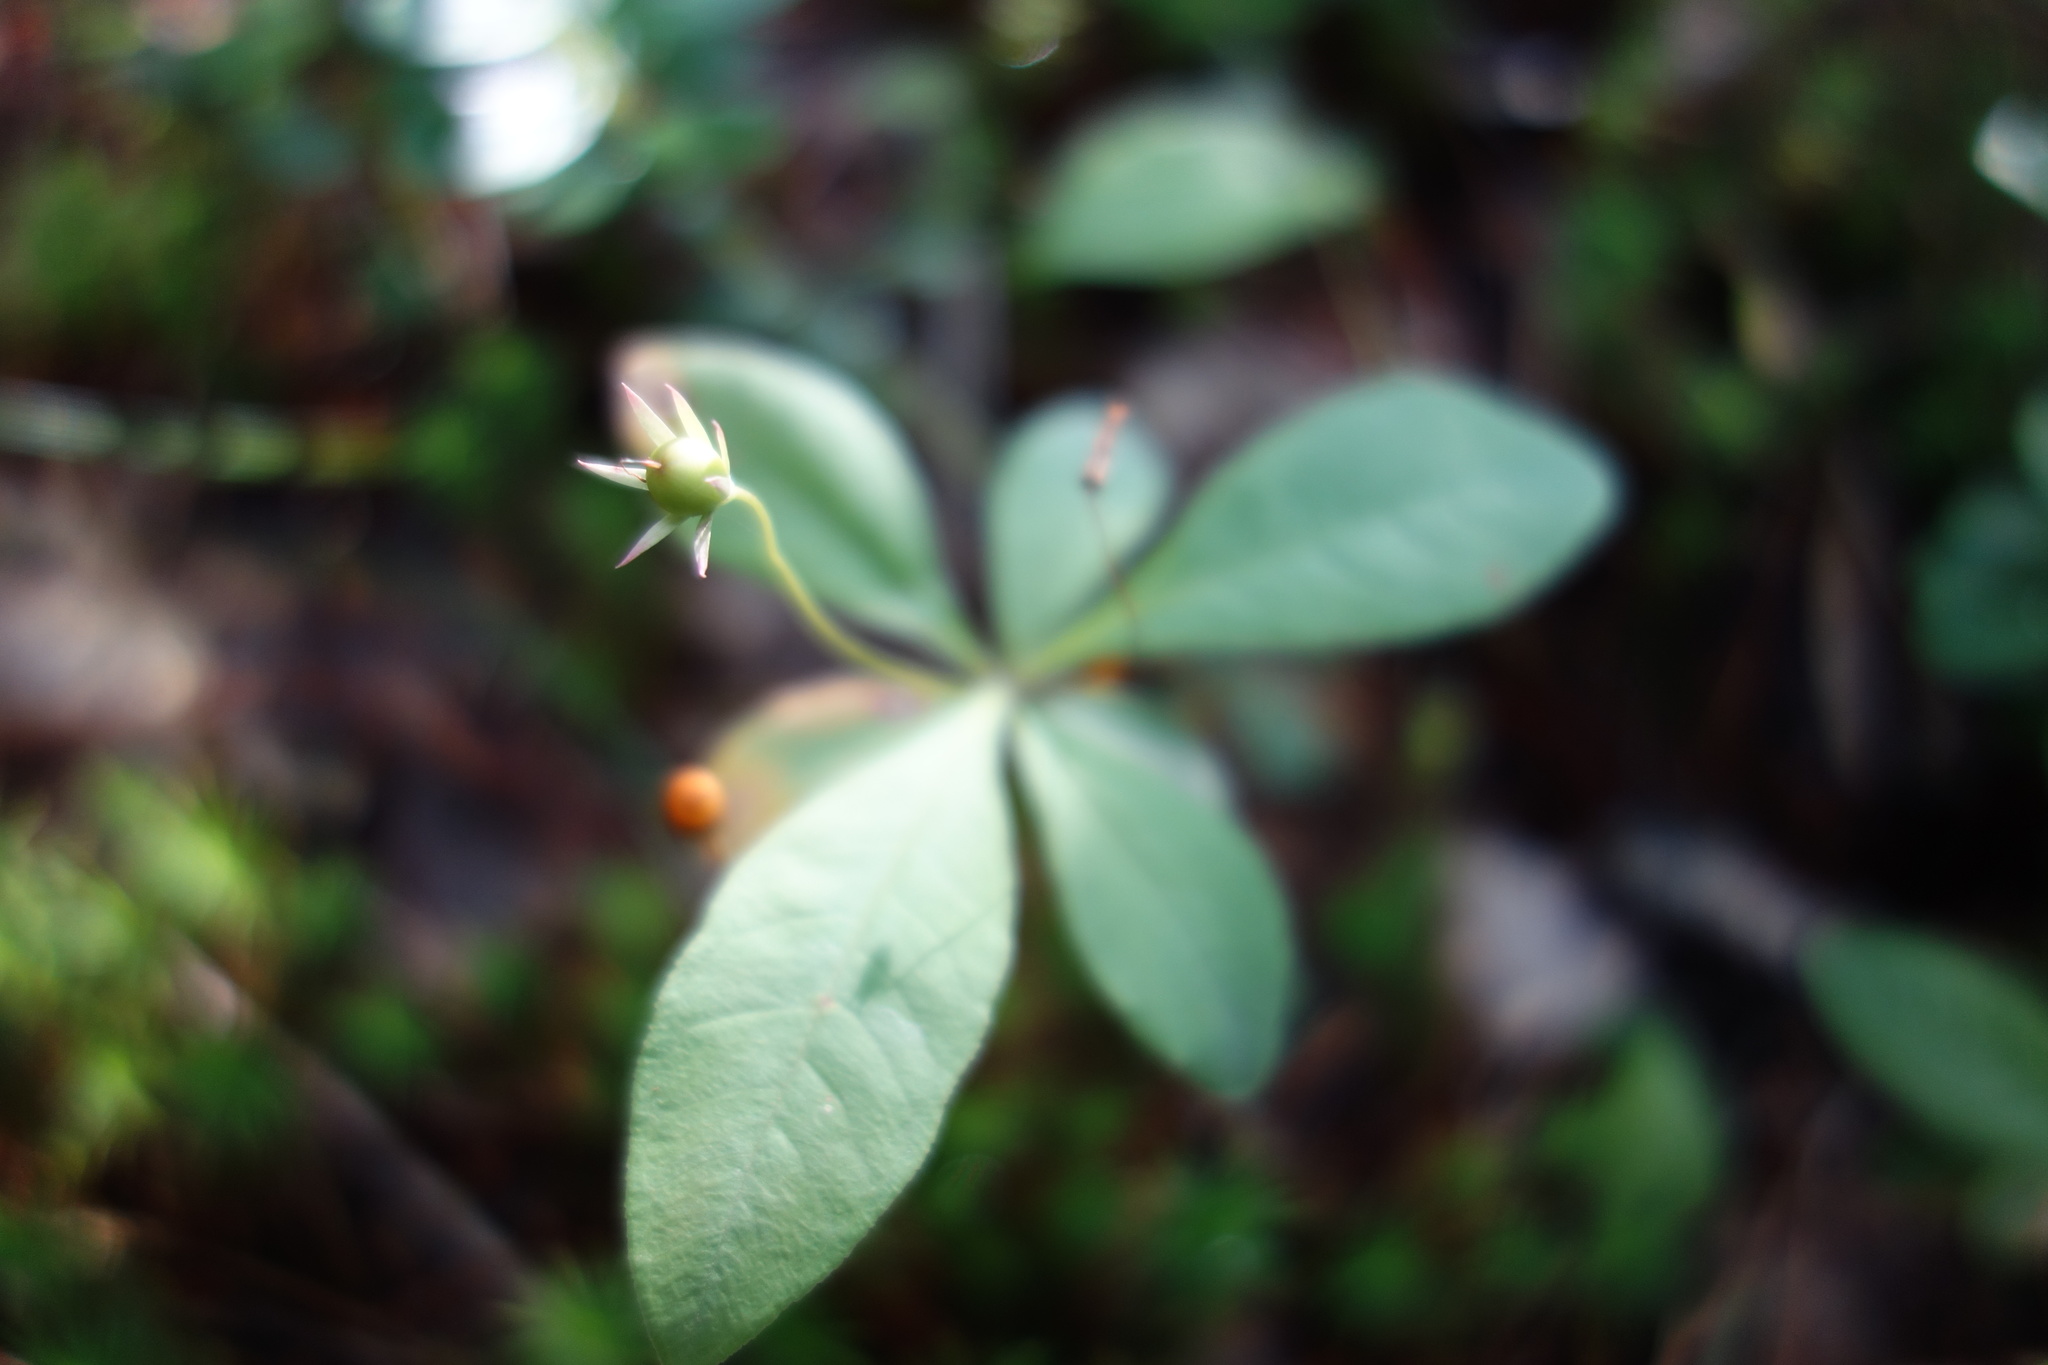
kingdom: Plantae
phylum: Tracheophyta
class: Magnoliopsida
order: Ericales
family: Primulaceae
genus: Lysimachia
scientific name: Lysimachia europaea
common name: Arctic starflower
